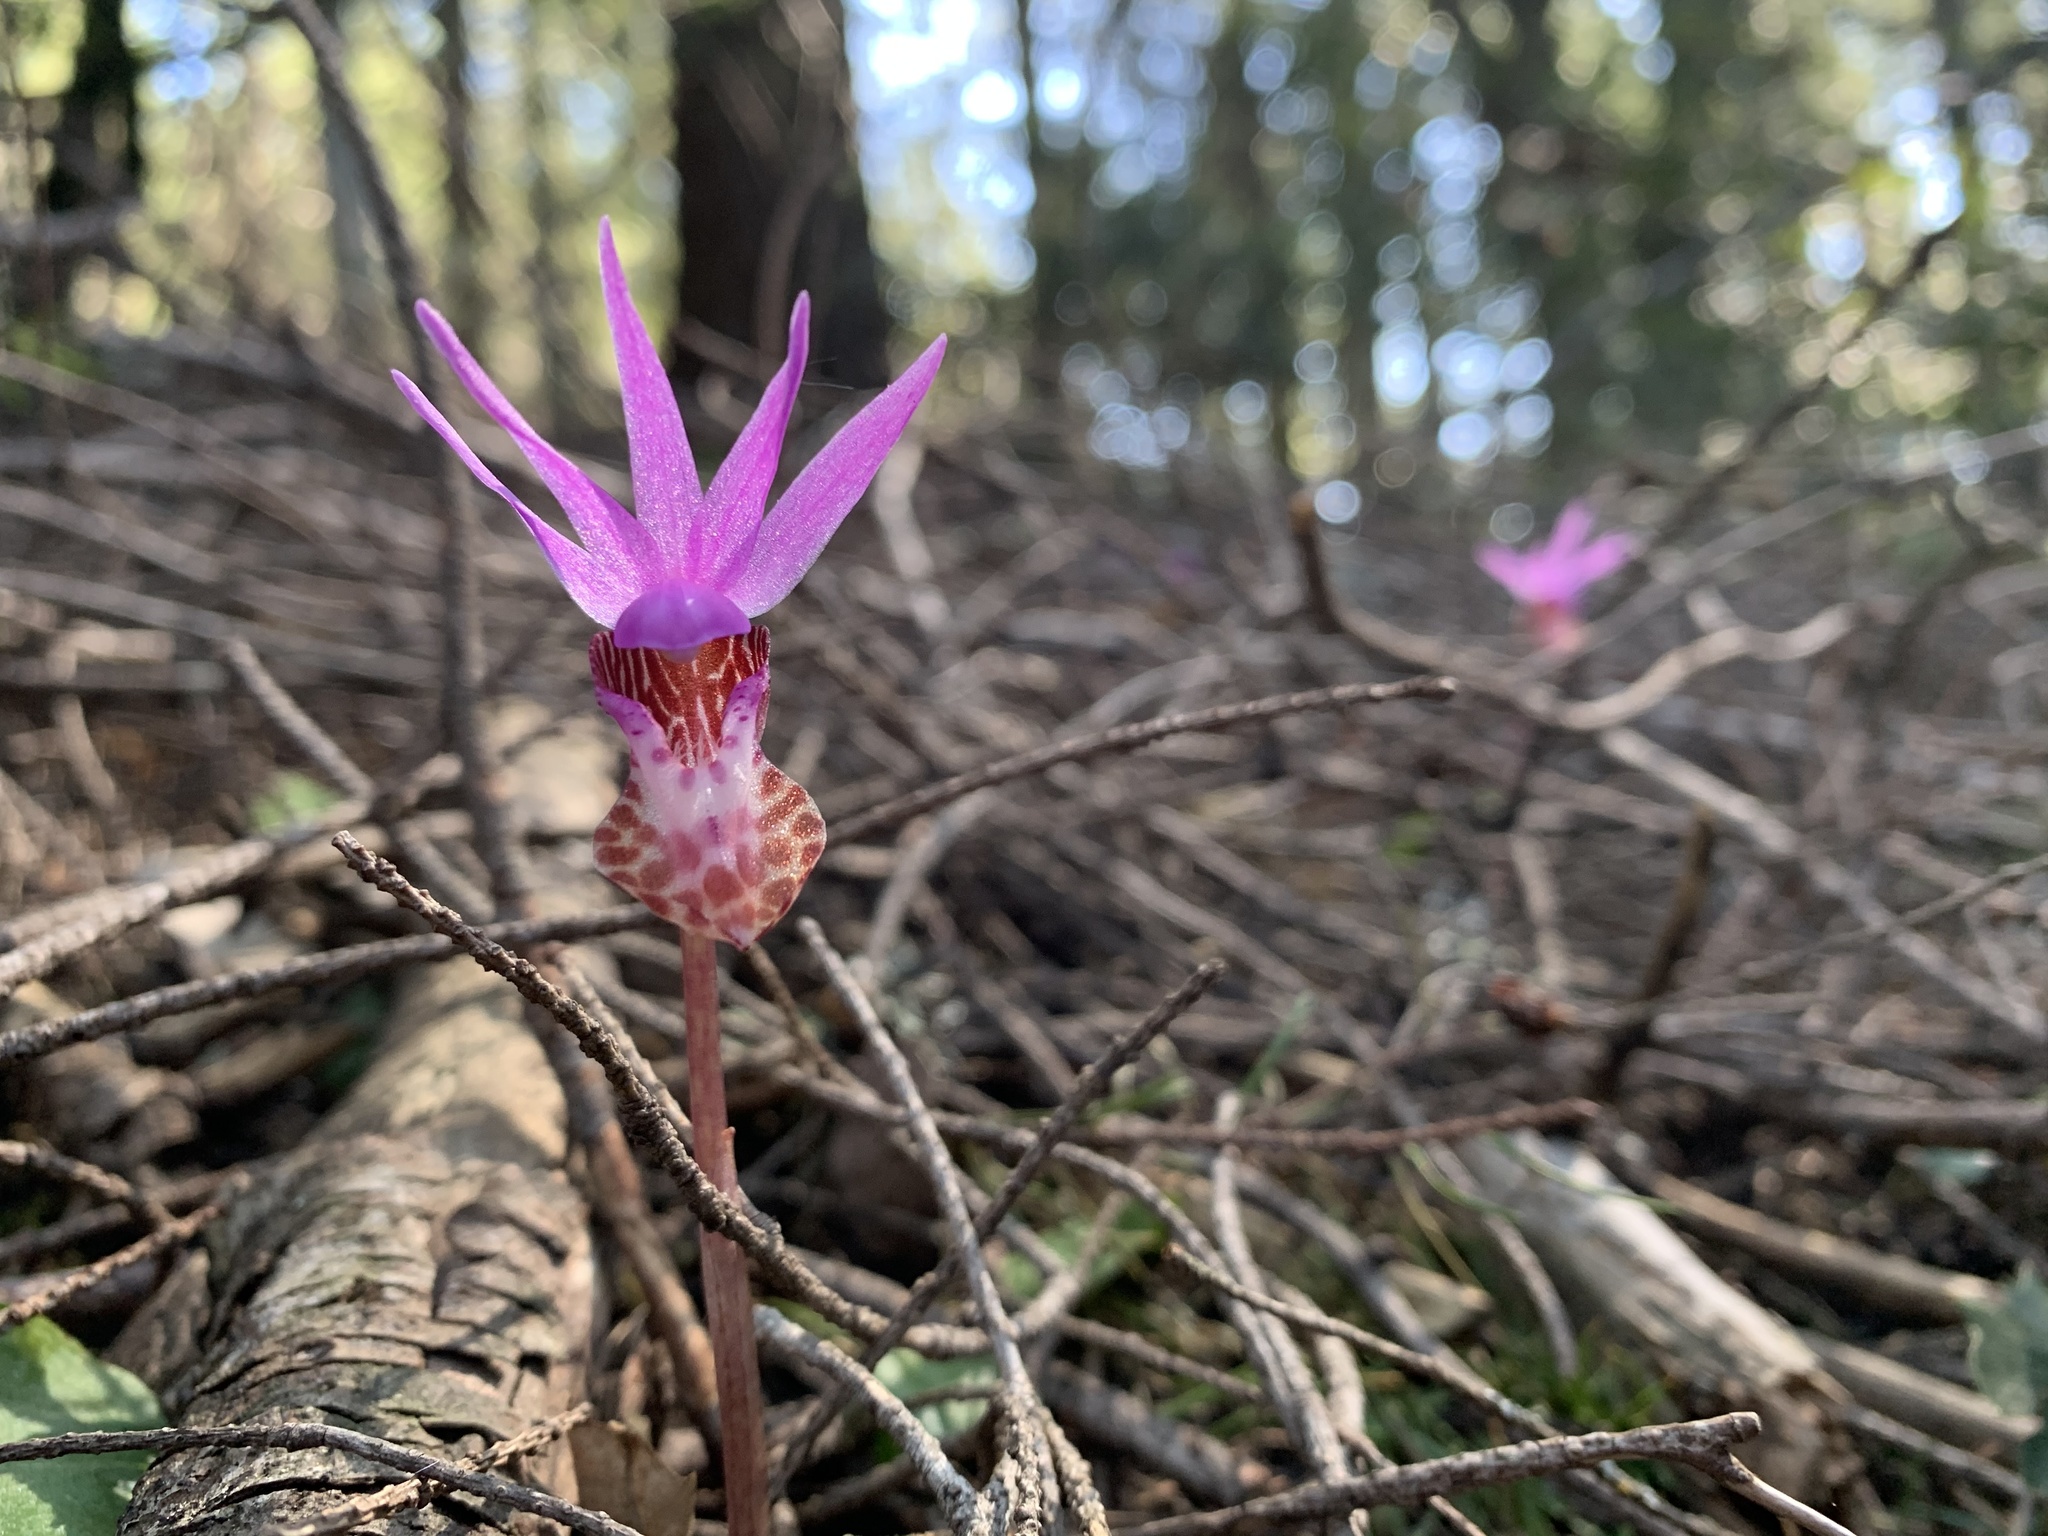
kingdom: Plantae
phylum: Tracheophyta
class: Liliopsida
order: Asparagales
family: Orchidaceae
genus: Calypso
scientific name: Calypso bulbosa
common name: Calypso
